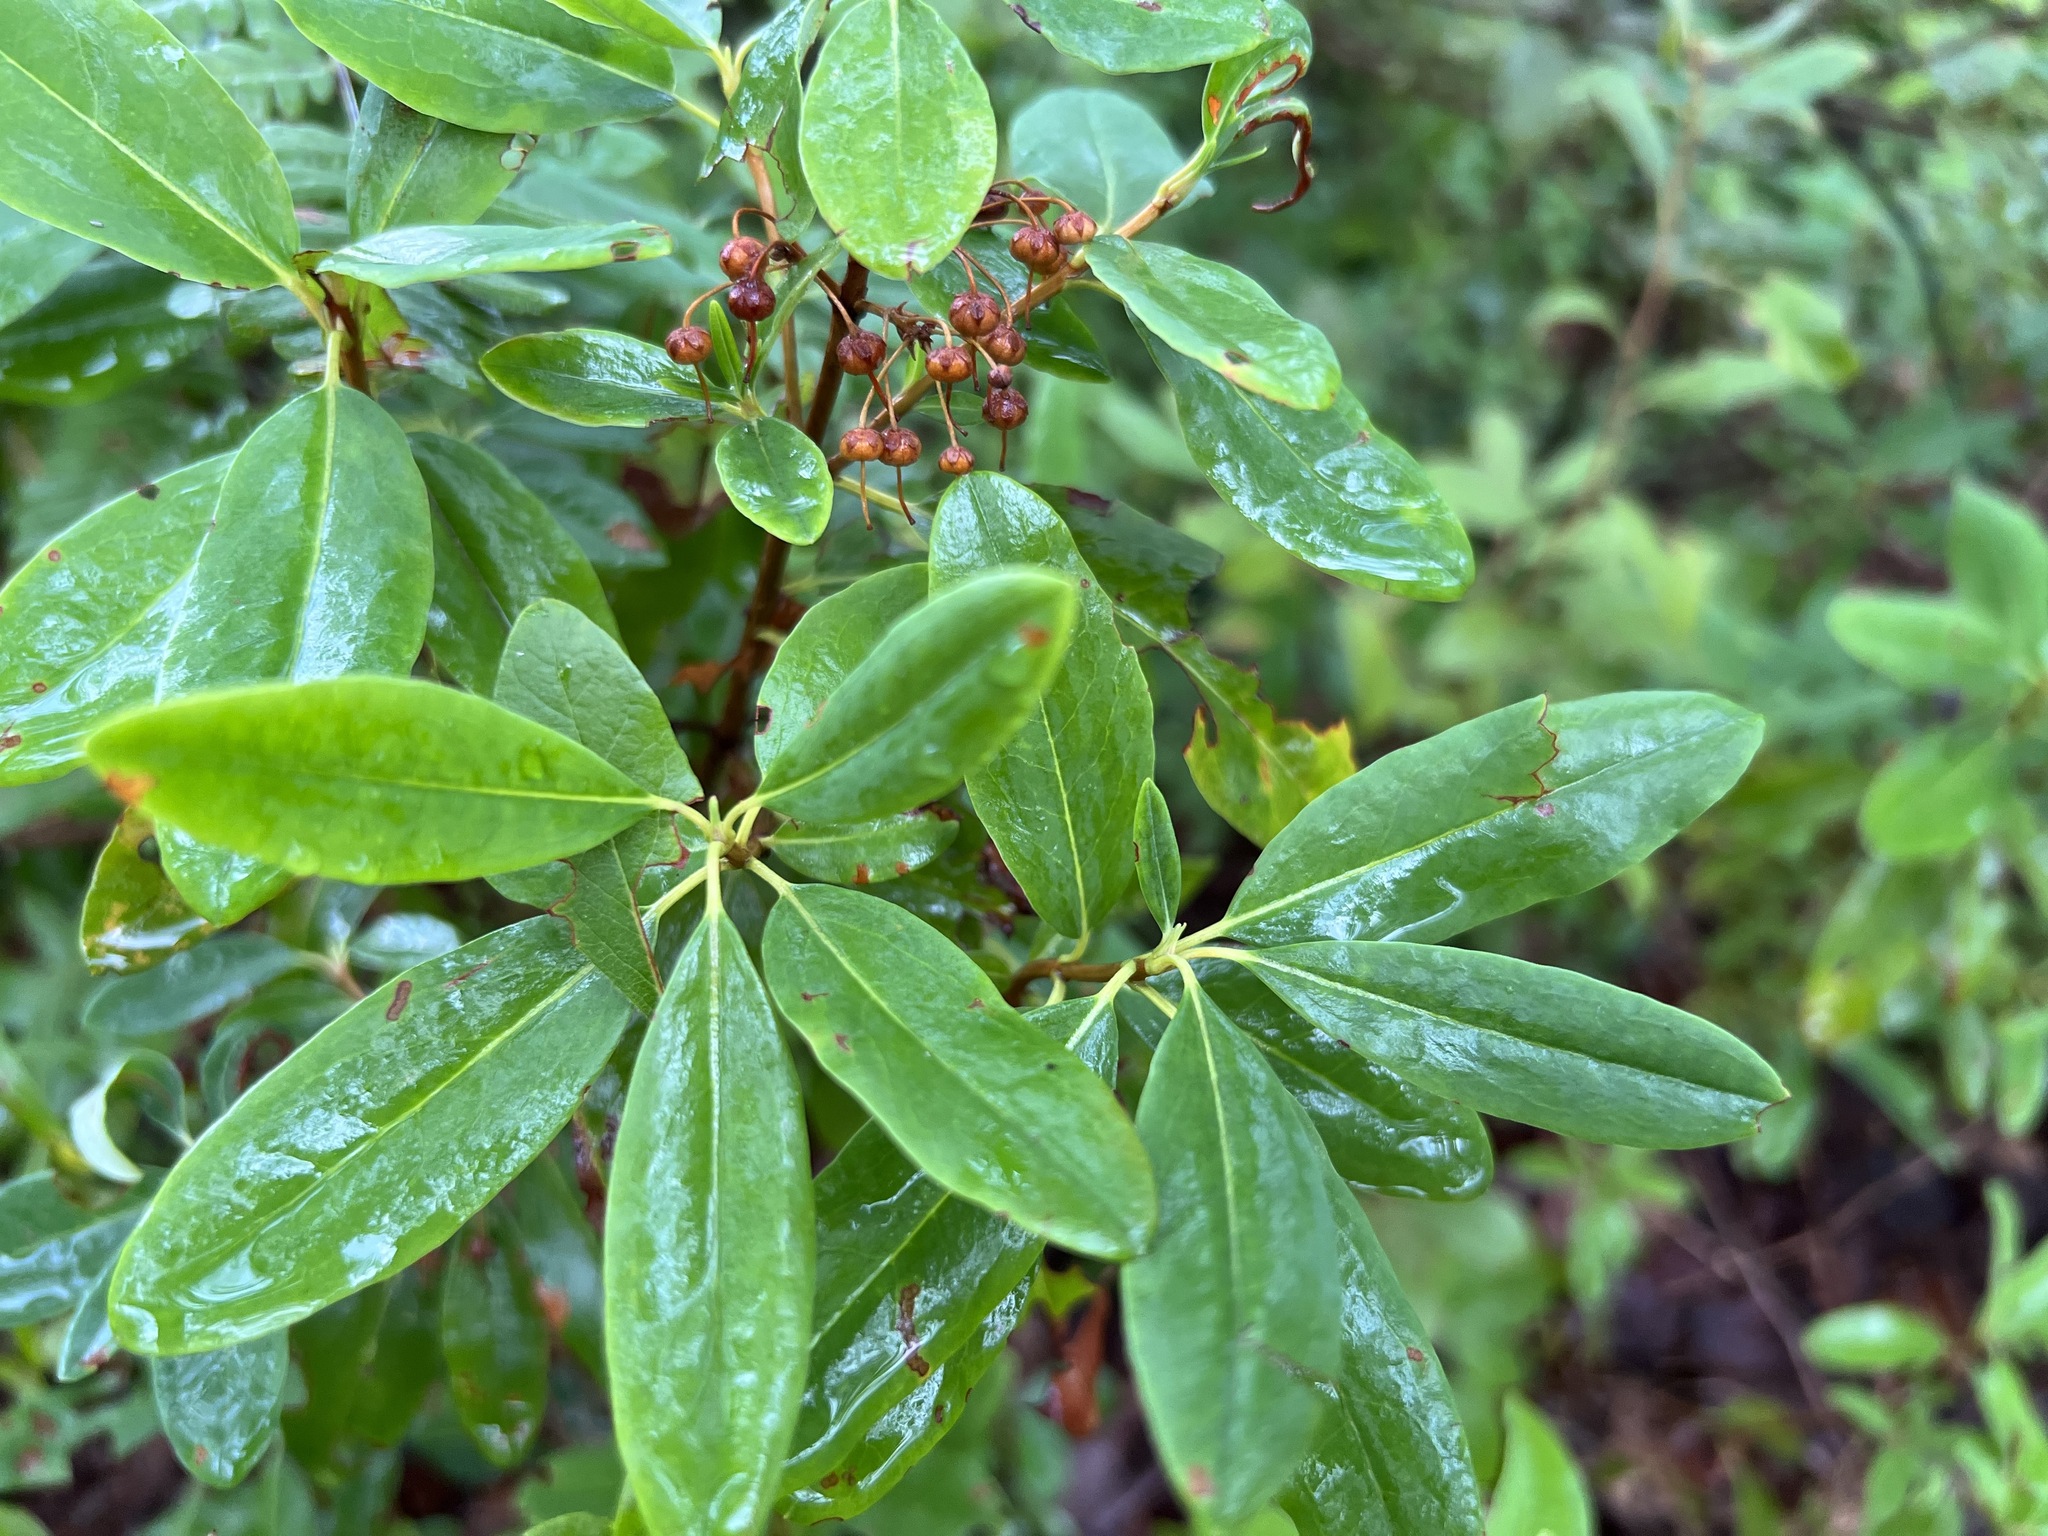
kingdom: Plantae
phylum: Tracheophyta
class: Magnoliopsida
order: Ericales
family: Ericaceae
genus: Kalmia
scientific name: Kalmia angustifolia
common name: Sheep-laurel
